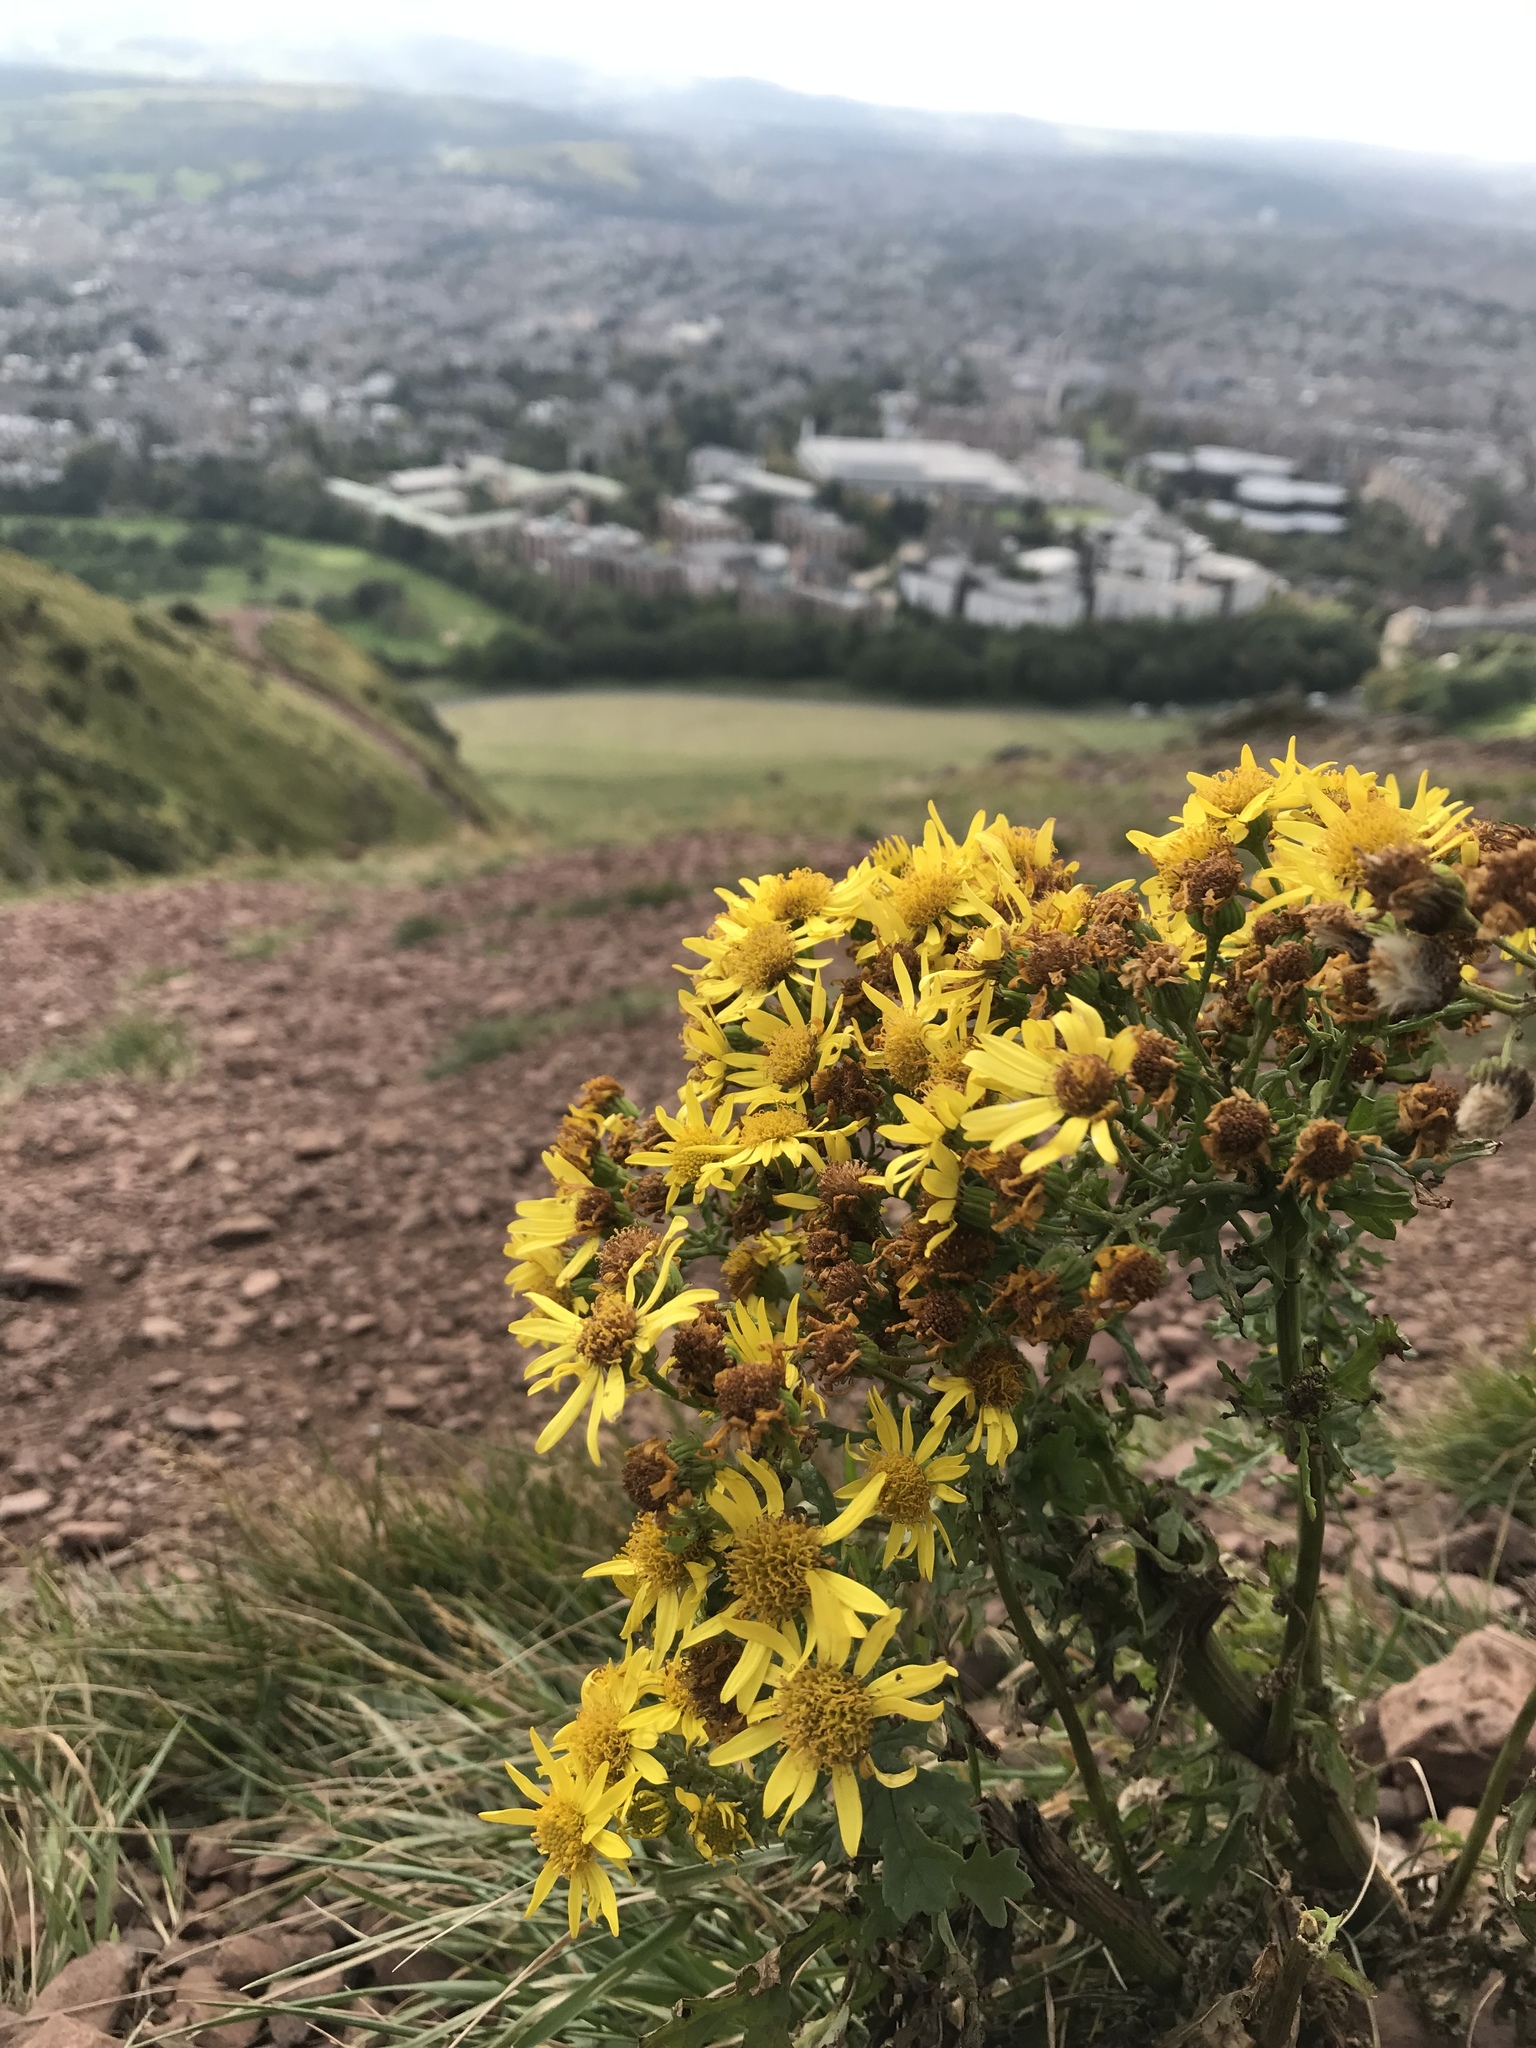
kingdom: Plantae
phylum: Tracheophyta
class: Magnoliopsida
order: Asterales
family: Asteraceae
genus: Jacobaea
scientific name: Jacobaea vulgaris
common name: Stinking willie
